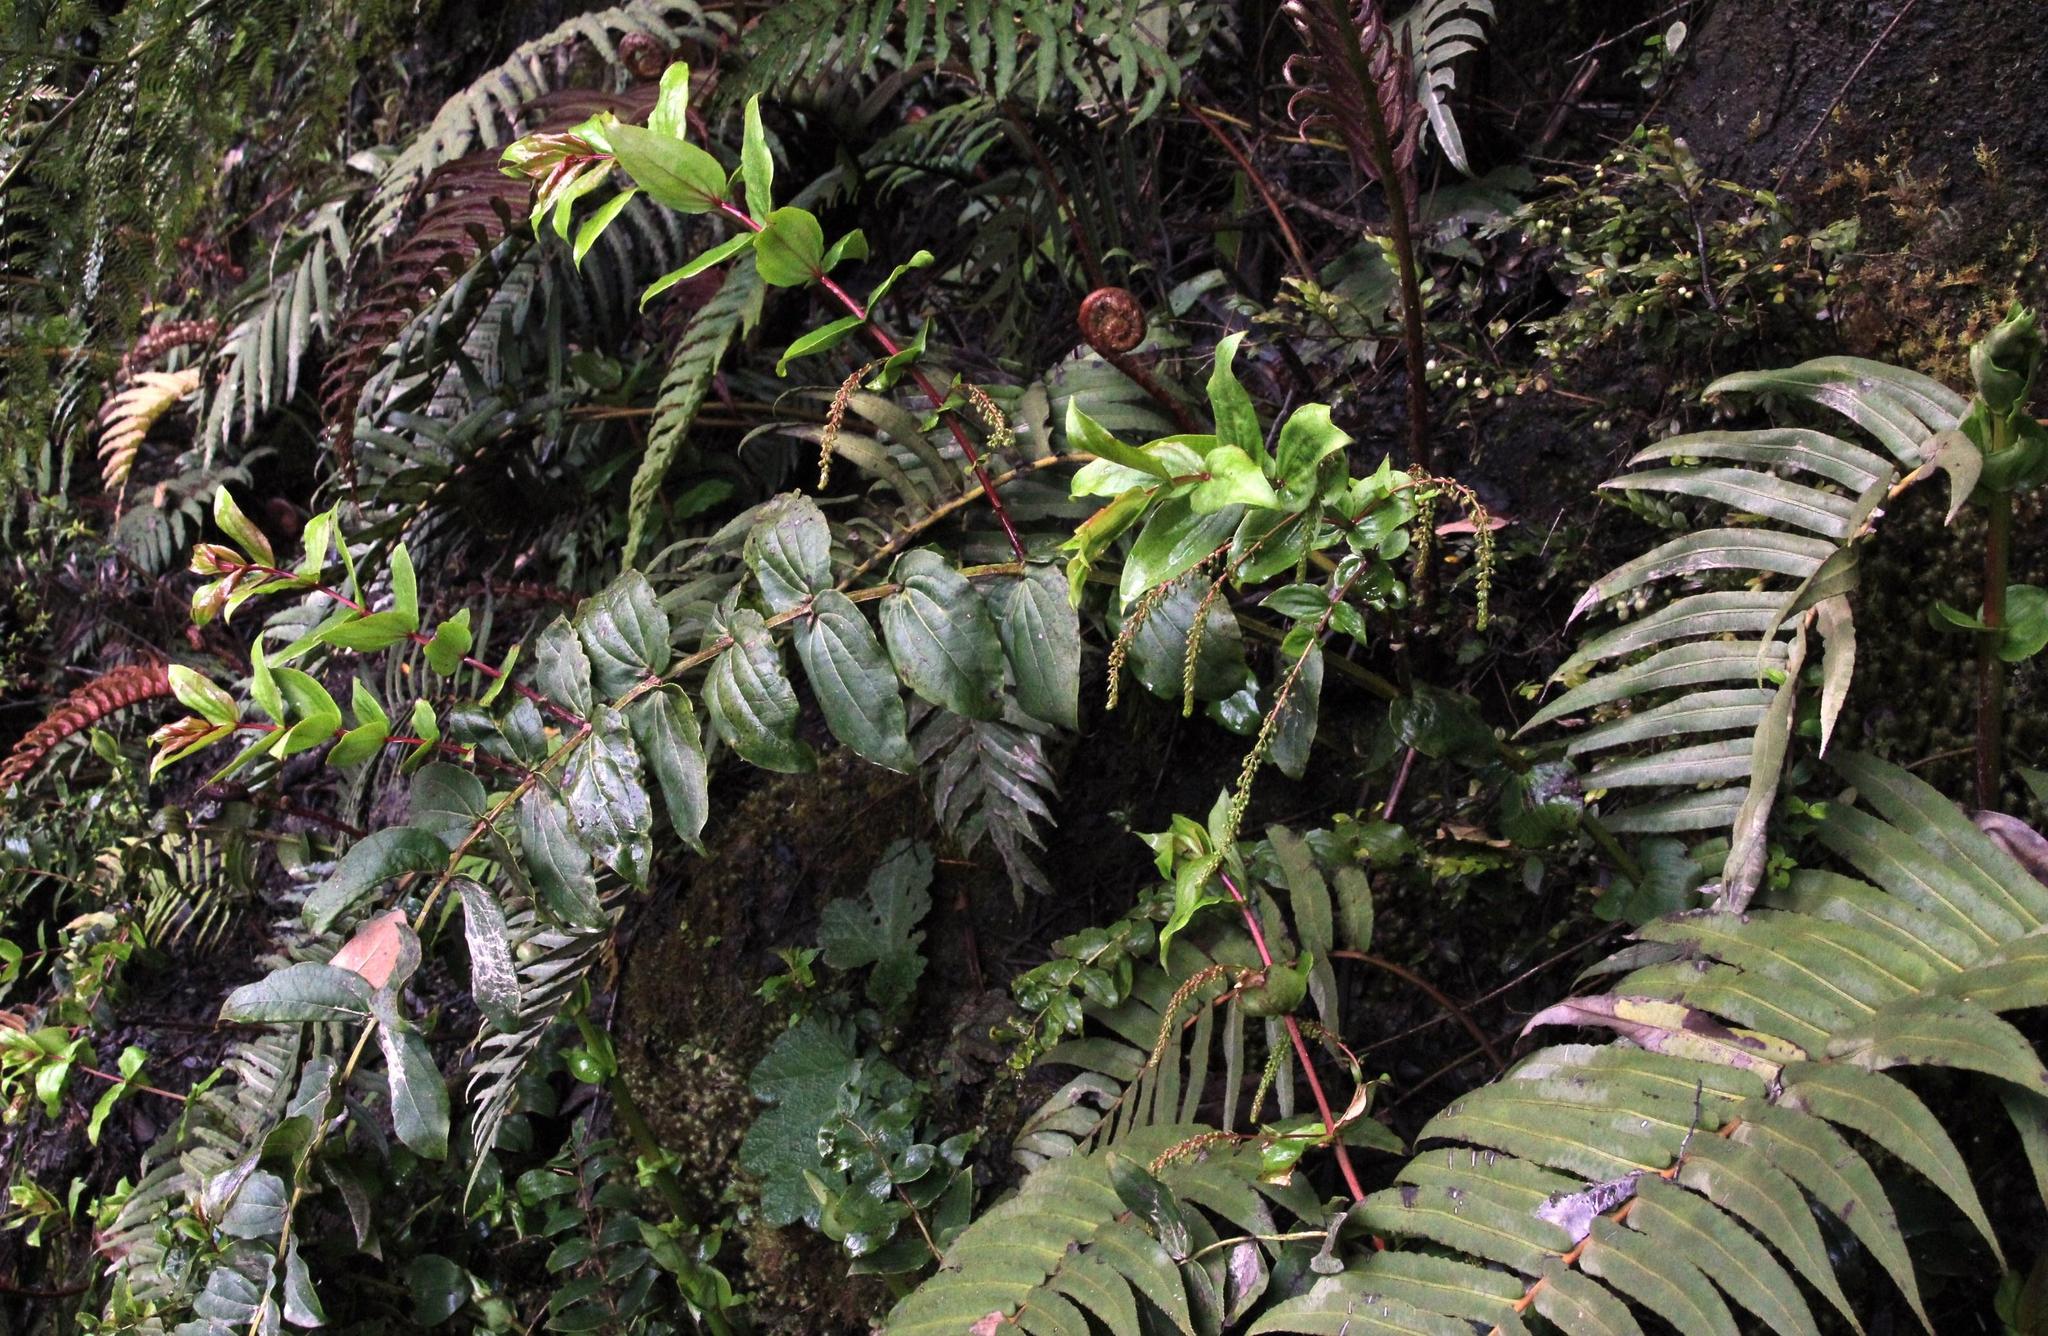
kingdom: Plantae
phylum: Tracheophyta
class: Polypodiopsida
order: Polypodiales
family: Blechnaceae
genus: Parablechnum
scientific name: Parablechnum chilense
